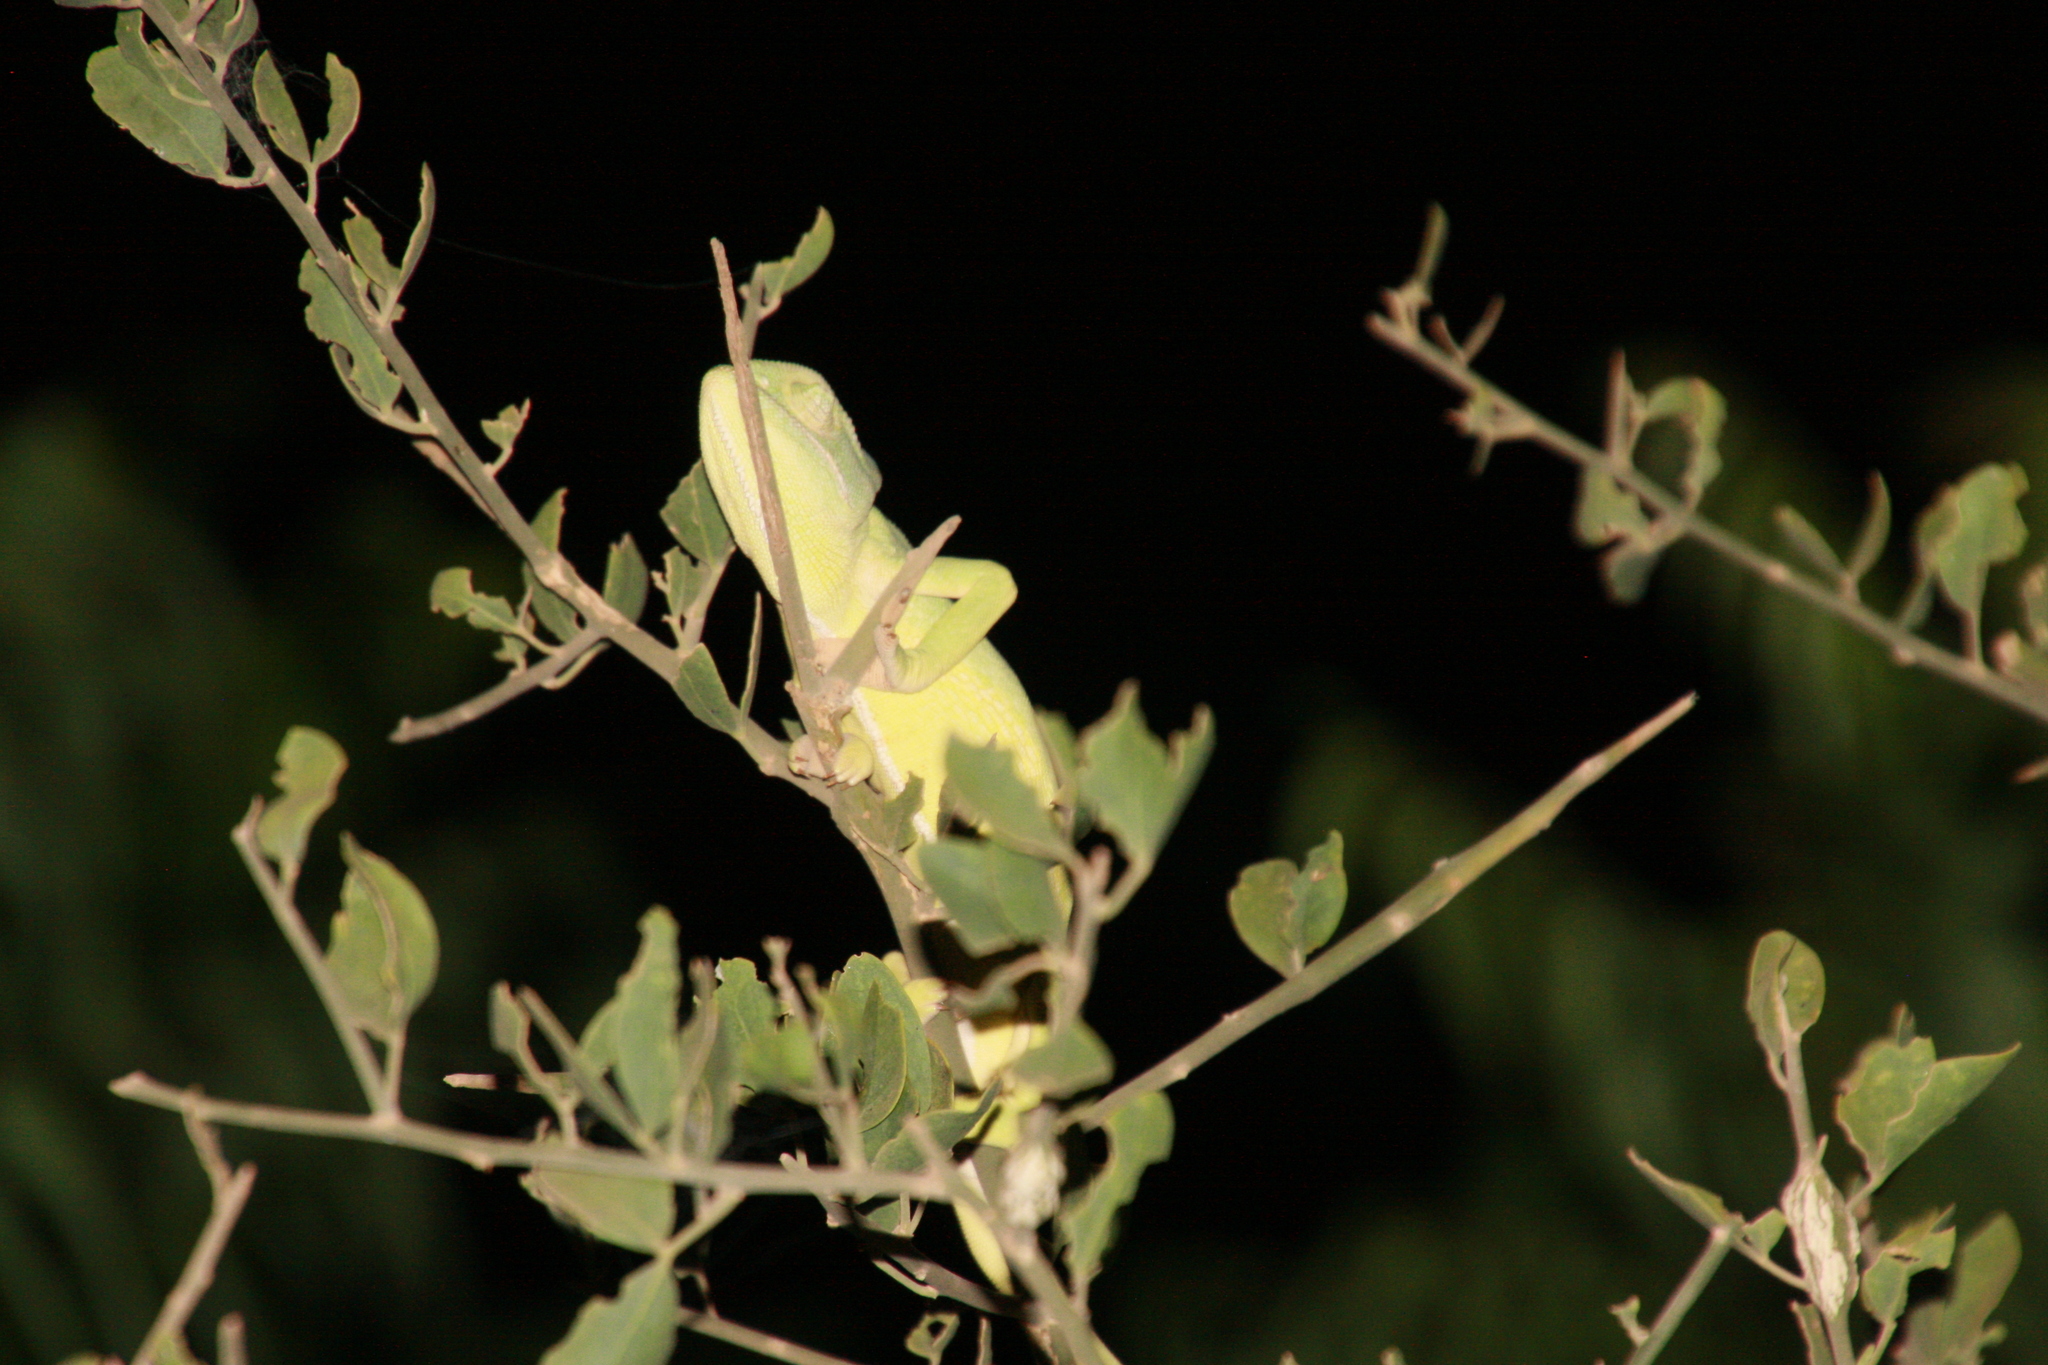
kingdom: Animalia
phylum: Chordata
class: Squamata
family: Chamaeleonidae
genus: Chamaeleo
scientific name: Chamaeleo africanus
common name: African chameleon
